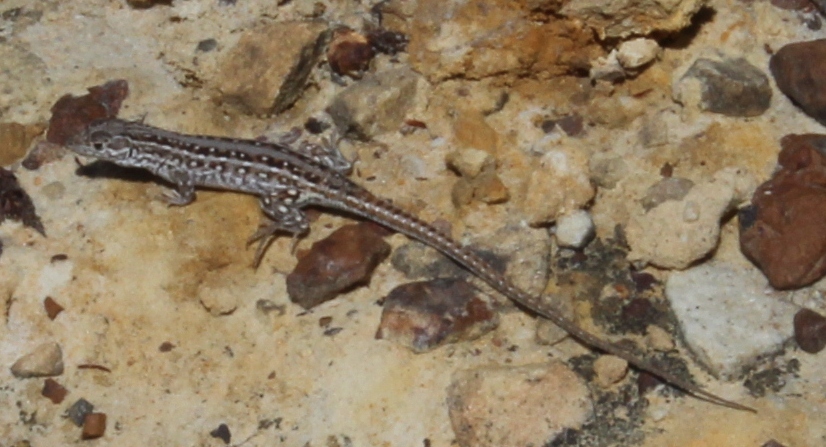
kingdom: Animalia
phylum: Chordata
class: Squamata
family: Lacertidae
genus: Meroles
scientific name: Meroles knoxii
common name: Knox's desert lizard
